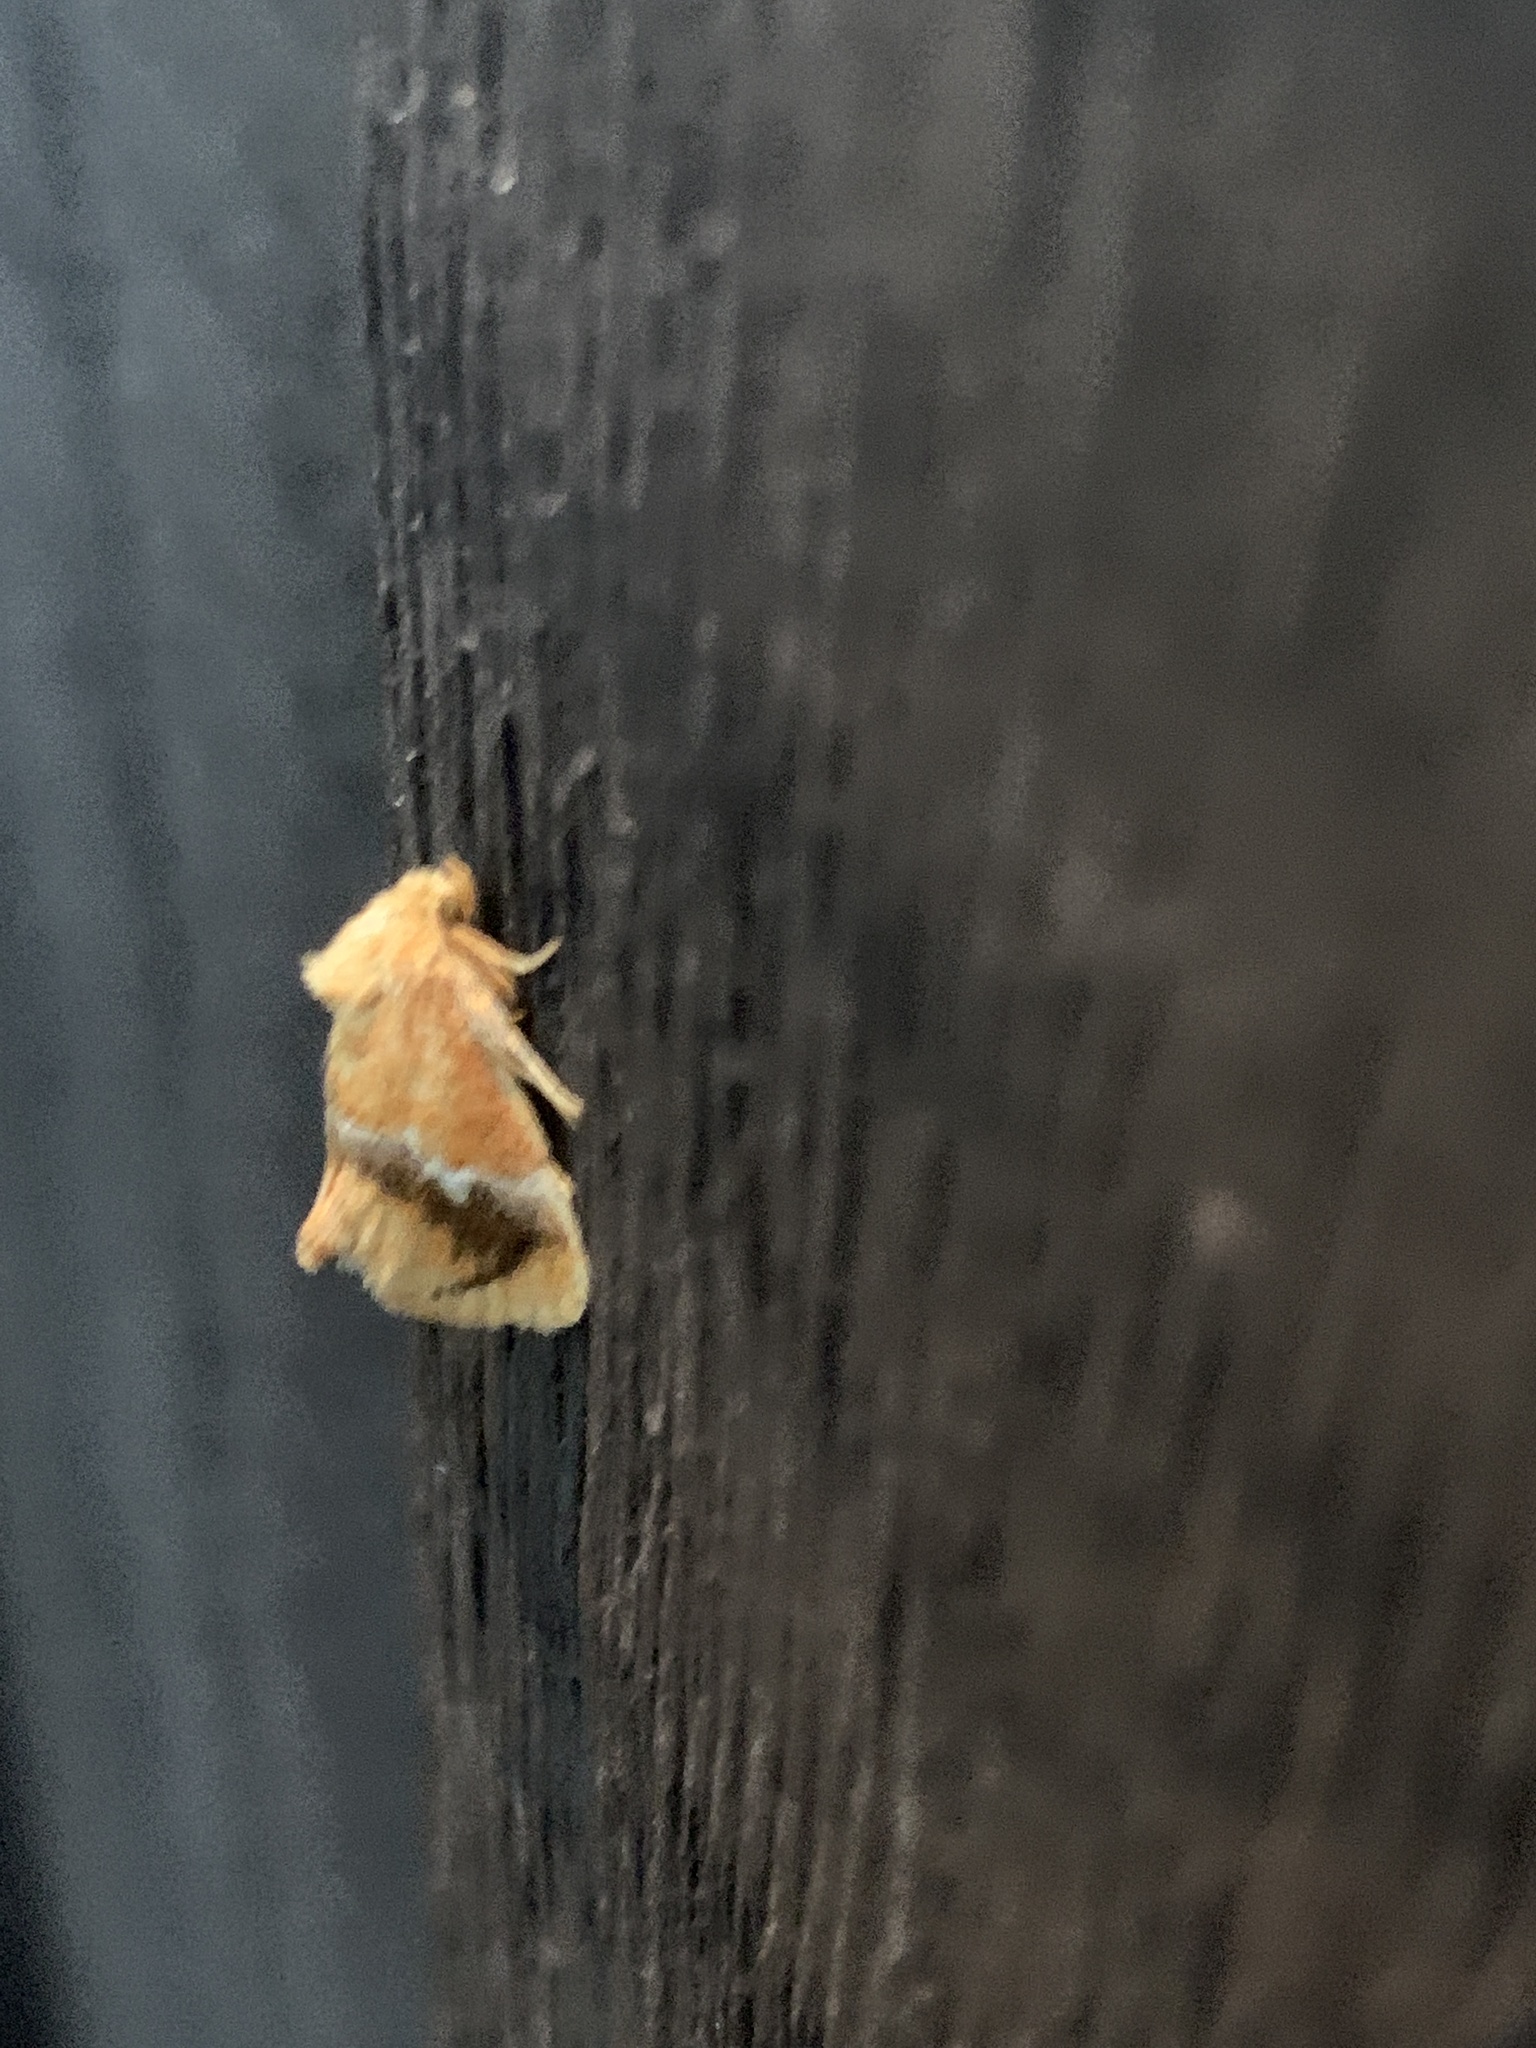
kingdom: Animalia
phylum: Arthropoda
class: Insecta
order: Lepidoptera
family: Limacodidae
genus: Lithacodes
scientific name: Lithacodes fasciola
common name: Yellow-shouldered slug moth
